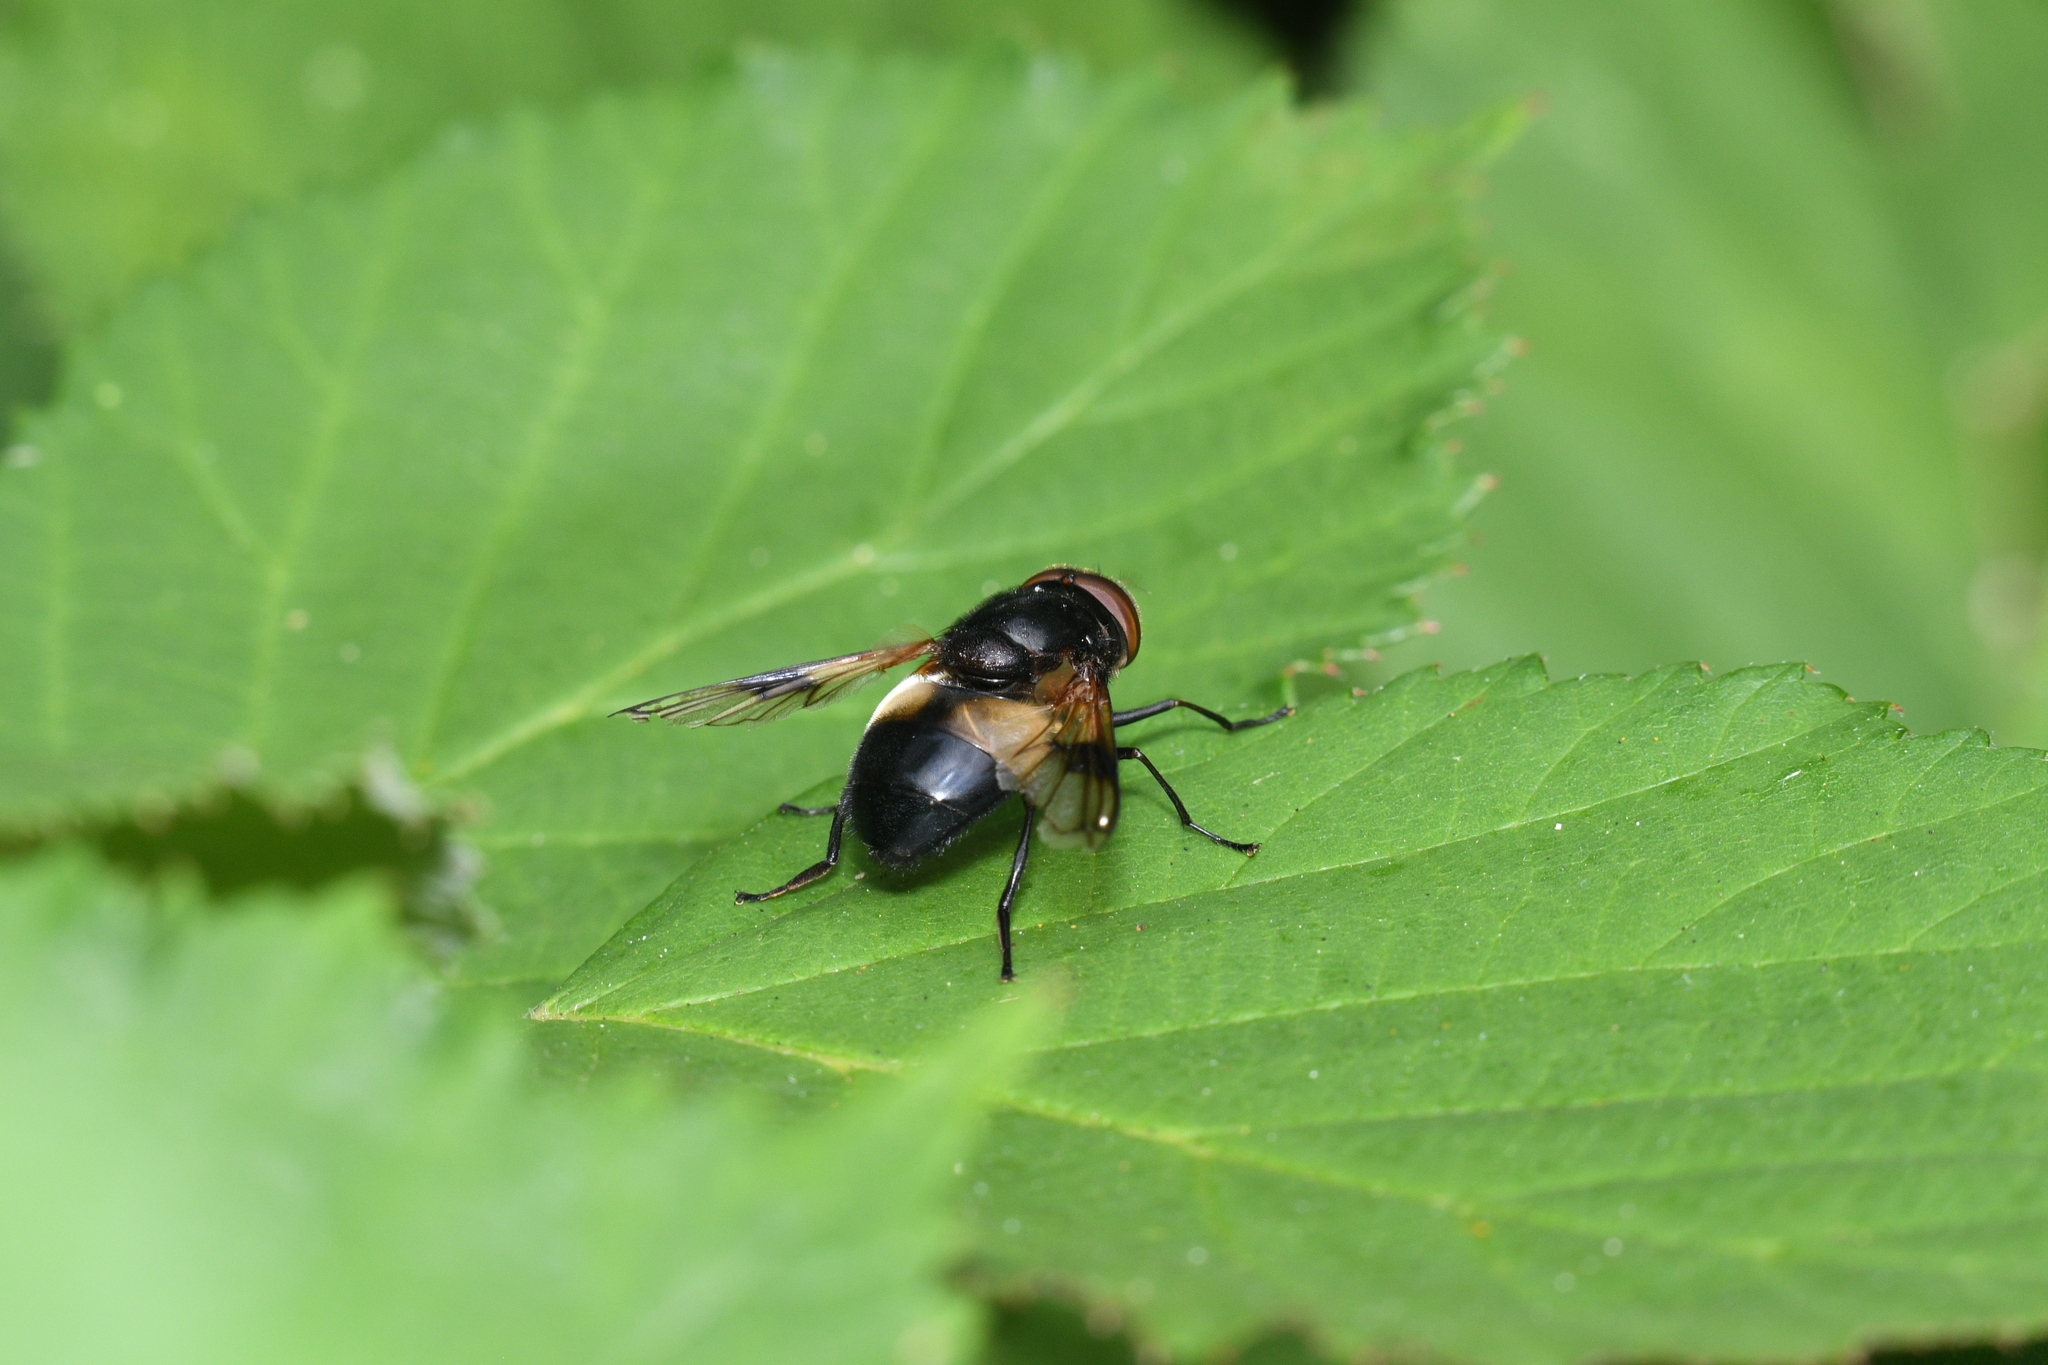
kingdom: Animalia
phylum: Arthropoda
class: Insecta
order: Diptera
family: Syrphidae
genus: Volucella
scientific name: Volucella pellucens
